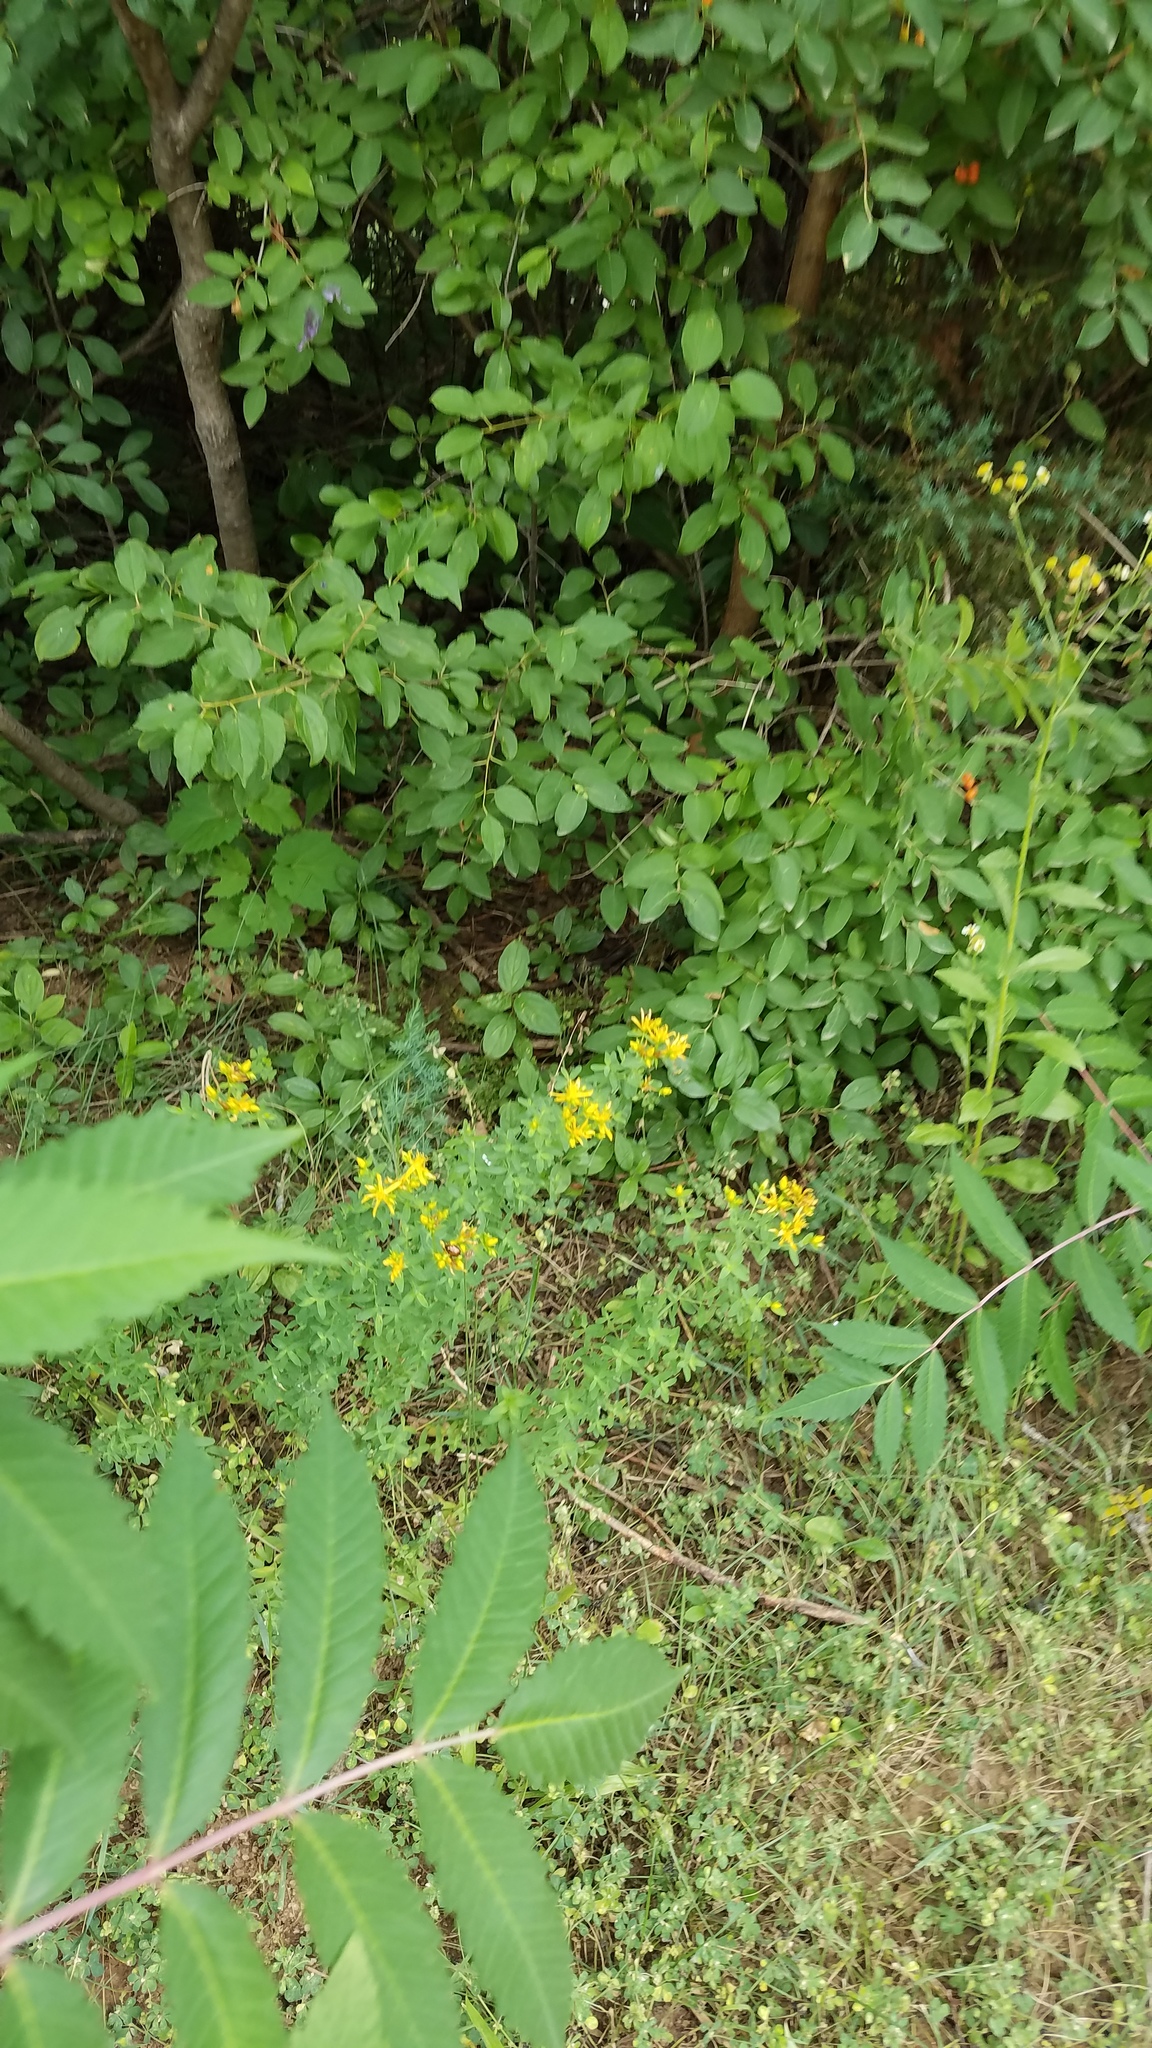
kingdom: Plantae
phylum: Tracheophyta
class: Magnoliopsida
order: Malpighiales
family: Hypericaceae
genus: Hypericum
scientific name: Hypericum perforatum
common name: Common st. johnswort
